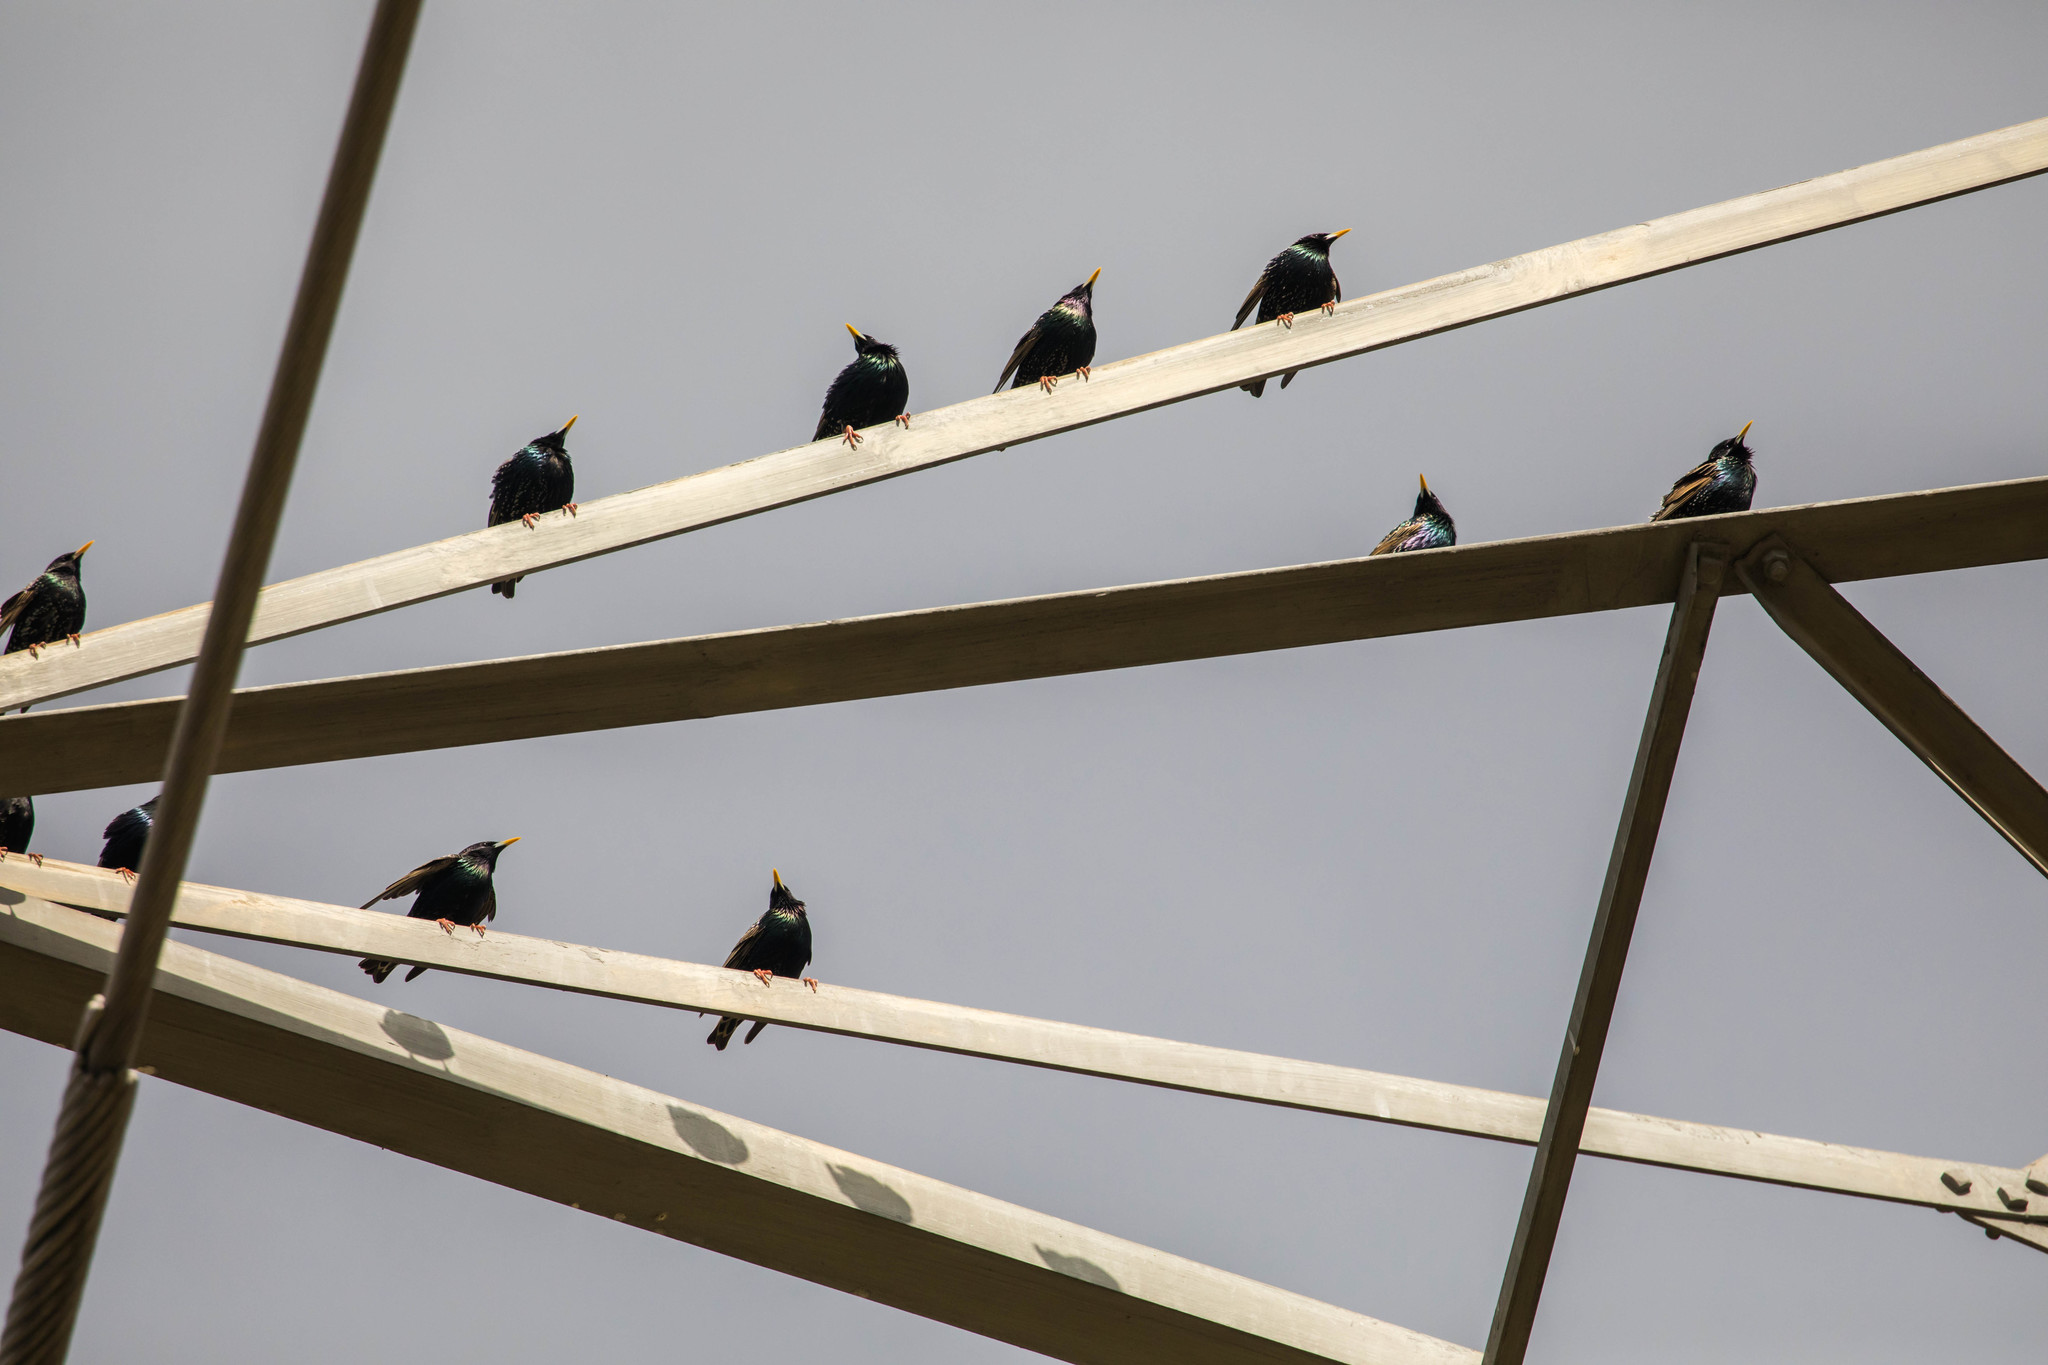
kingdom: Animalia
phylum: Chordata
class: Aves
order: Passeriformes
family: Sturnidae
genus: Sturnus
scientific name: Sturnus vulgaris
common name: Common starling
